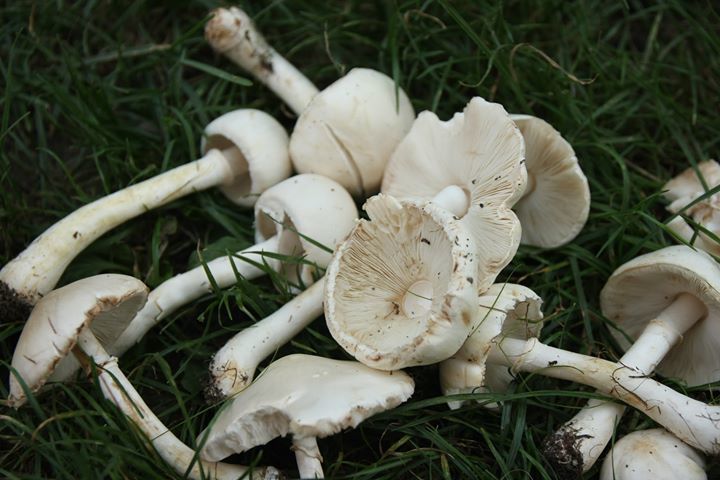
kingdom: Fungi
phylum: Basidiomycota
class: Agaricomycetes
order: Agaricales
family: Agaricaceae
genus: Leucoagaricus
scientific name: Leucoagaricus leucothites
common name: White dapperling
